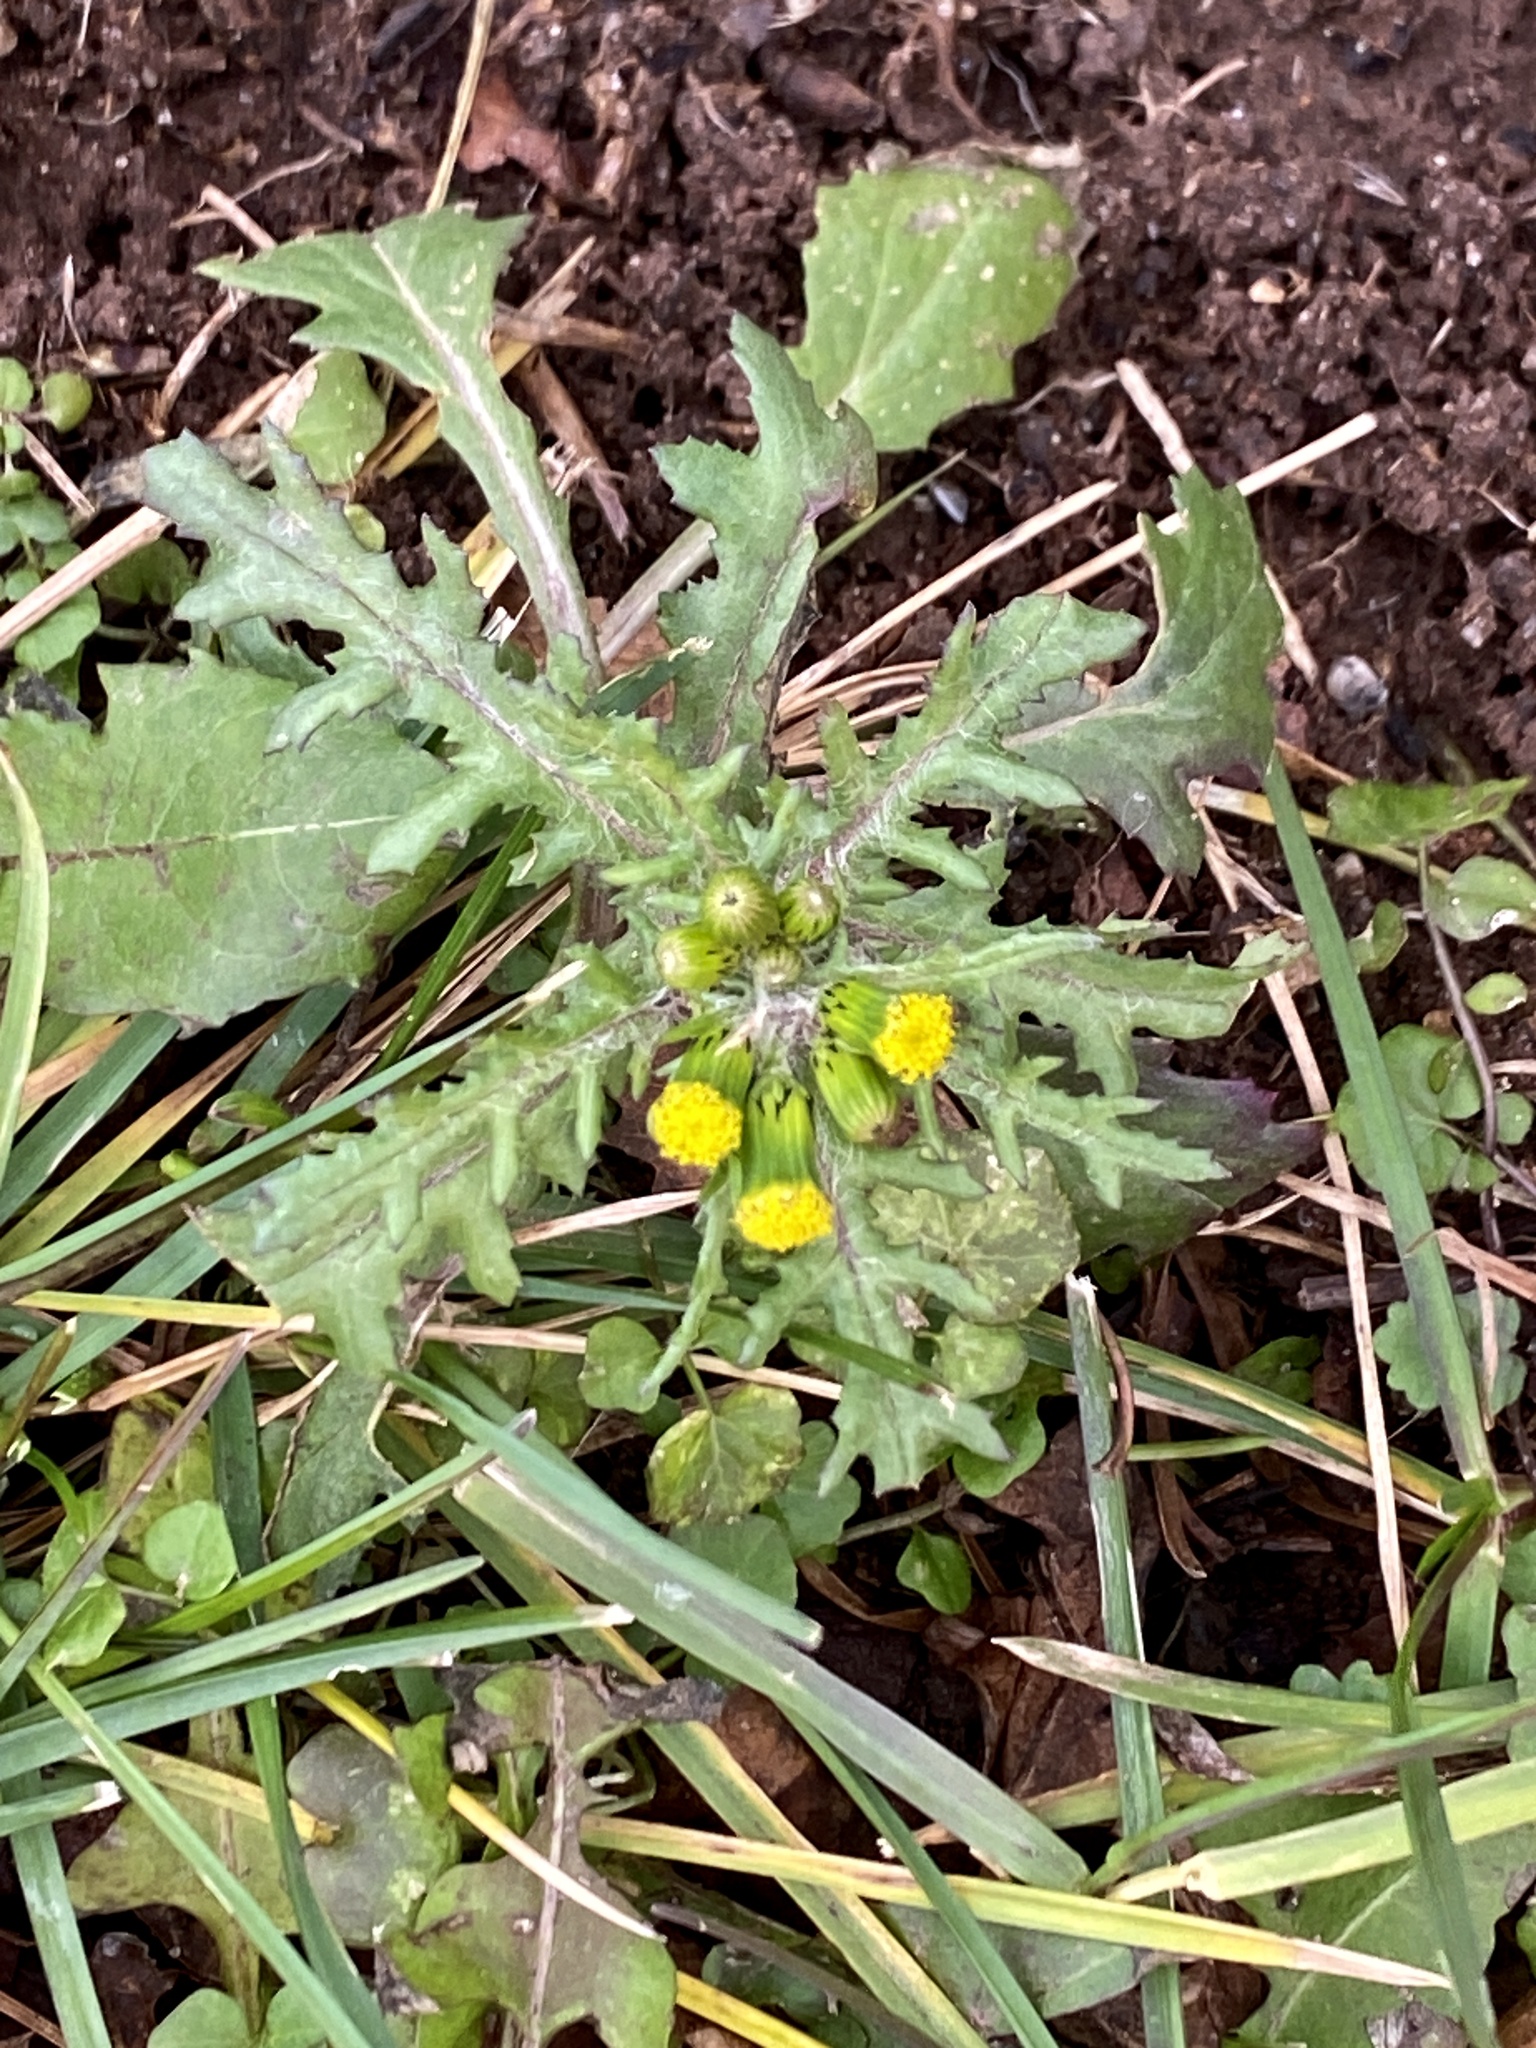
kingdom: Plantae
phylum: Tracheophyta
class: Magnoliopsida
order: Asterales
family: Asteraceae
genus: Senecio
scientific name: Senecio vulgaris
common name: Old-man-in-the-spring
